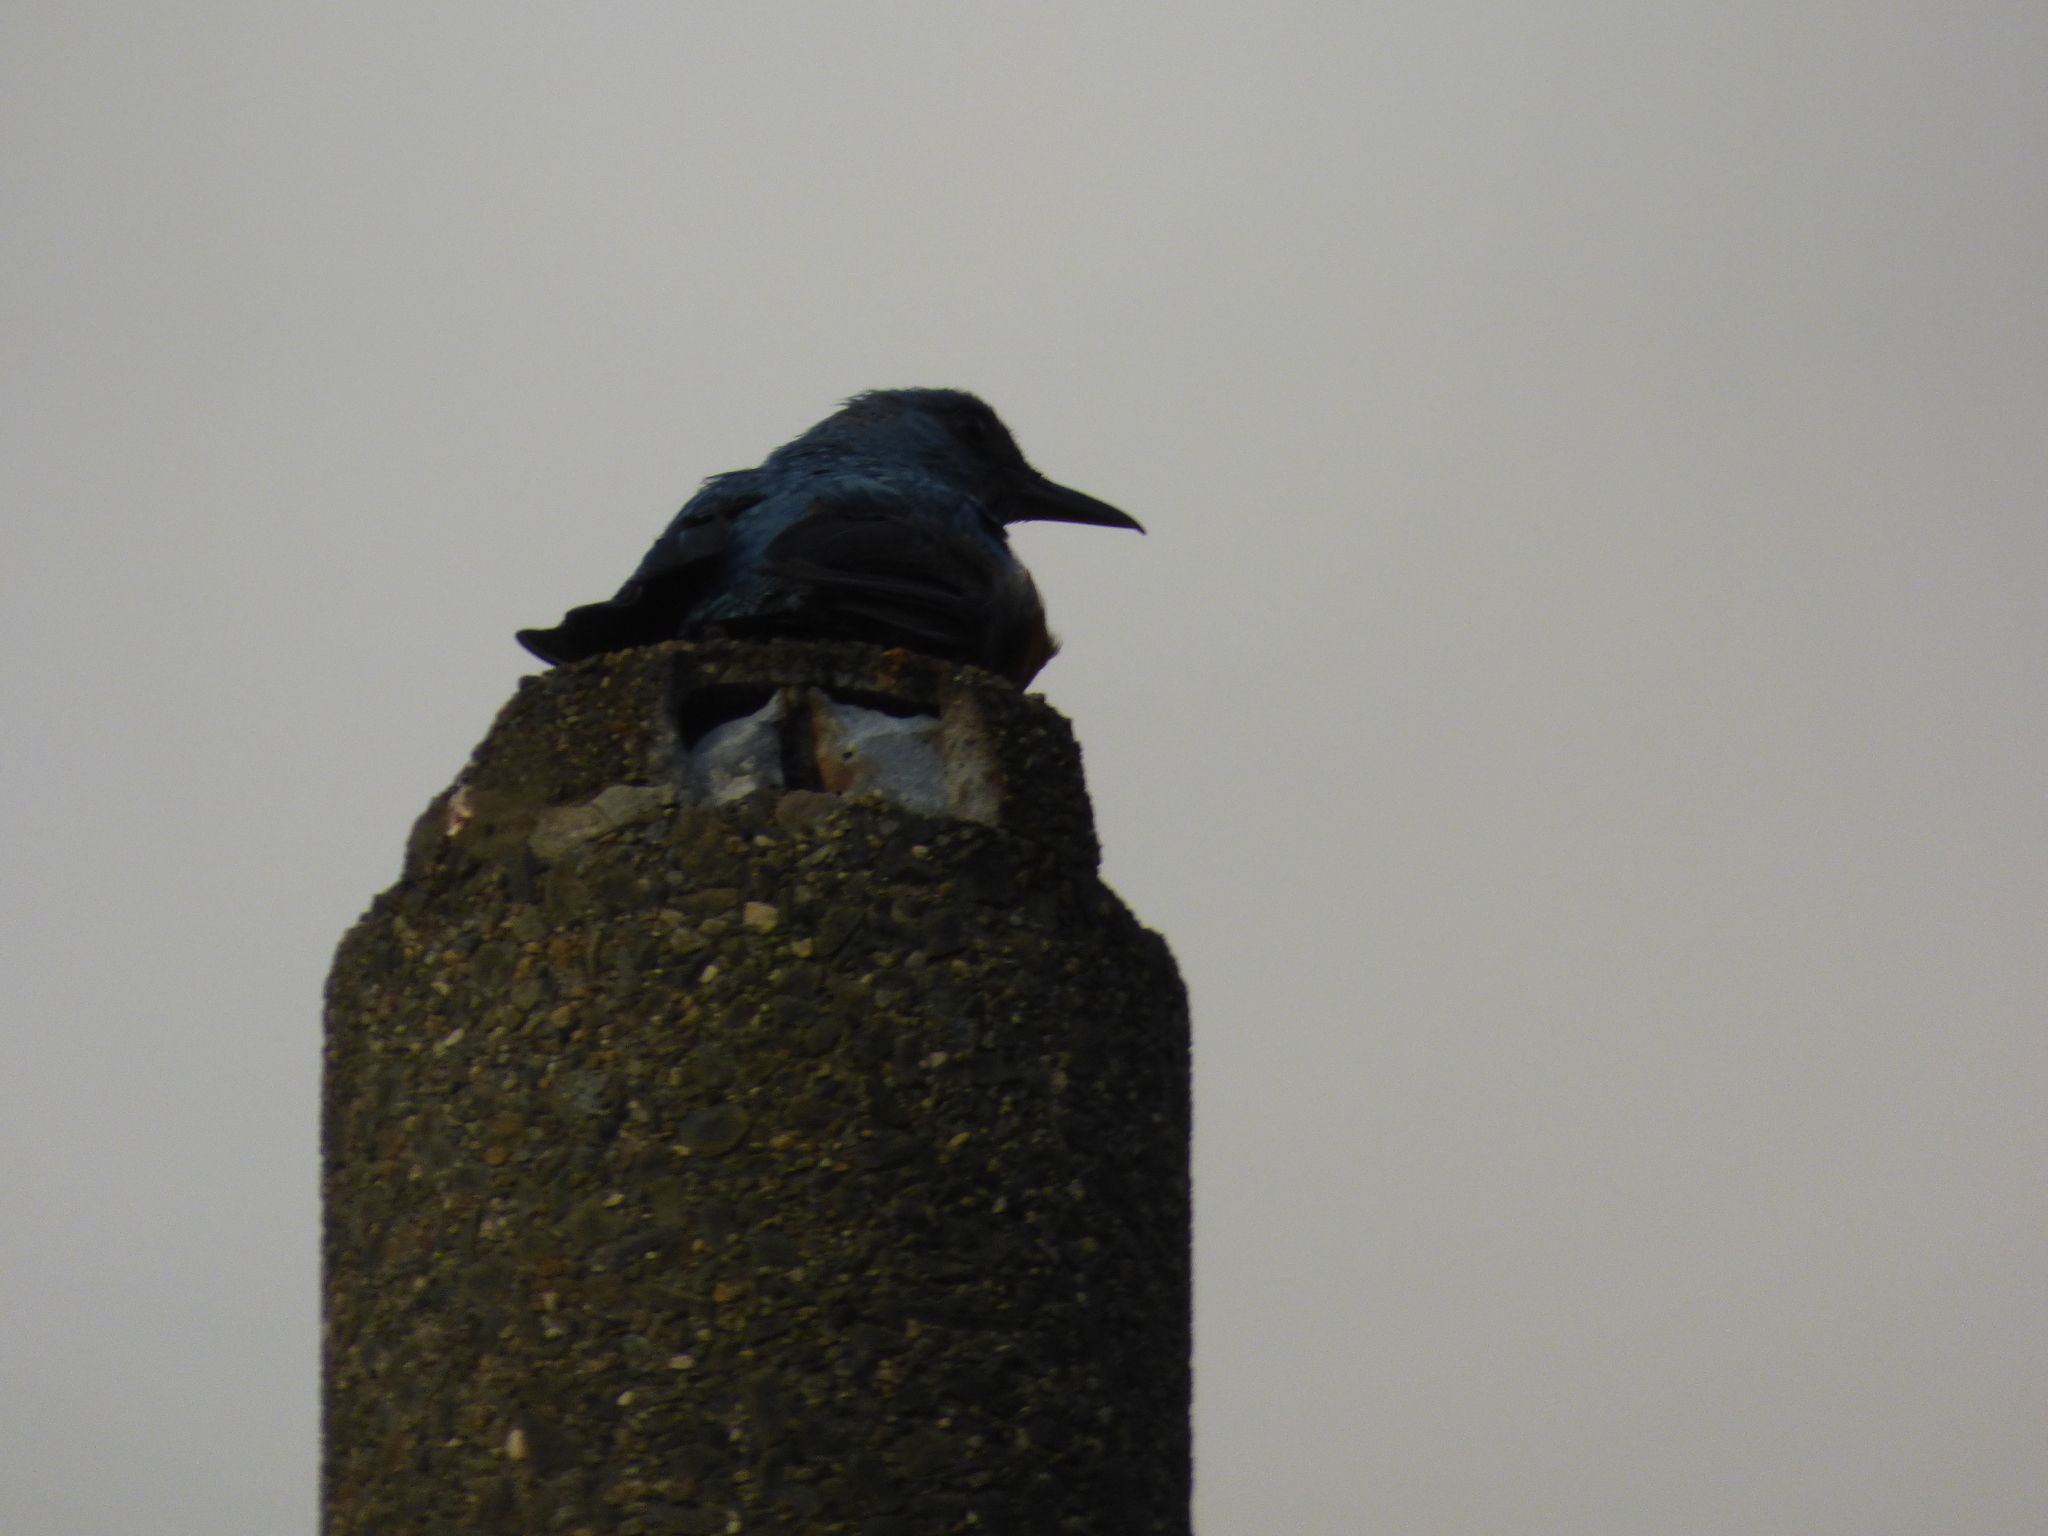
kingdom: Animalia
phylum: Chordata
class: Aves
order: Passeriformes
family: Muscicapidae
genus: Monticola
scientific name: Monticola solitarius
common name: Blue rock thrush
